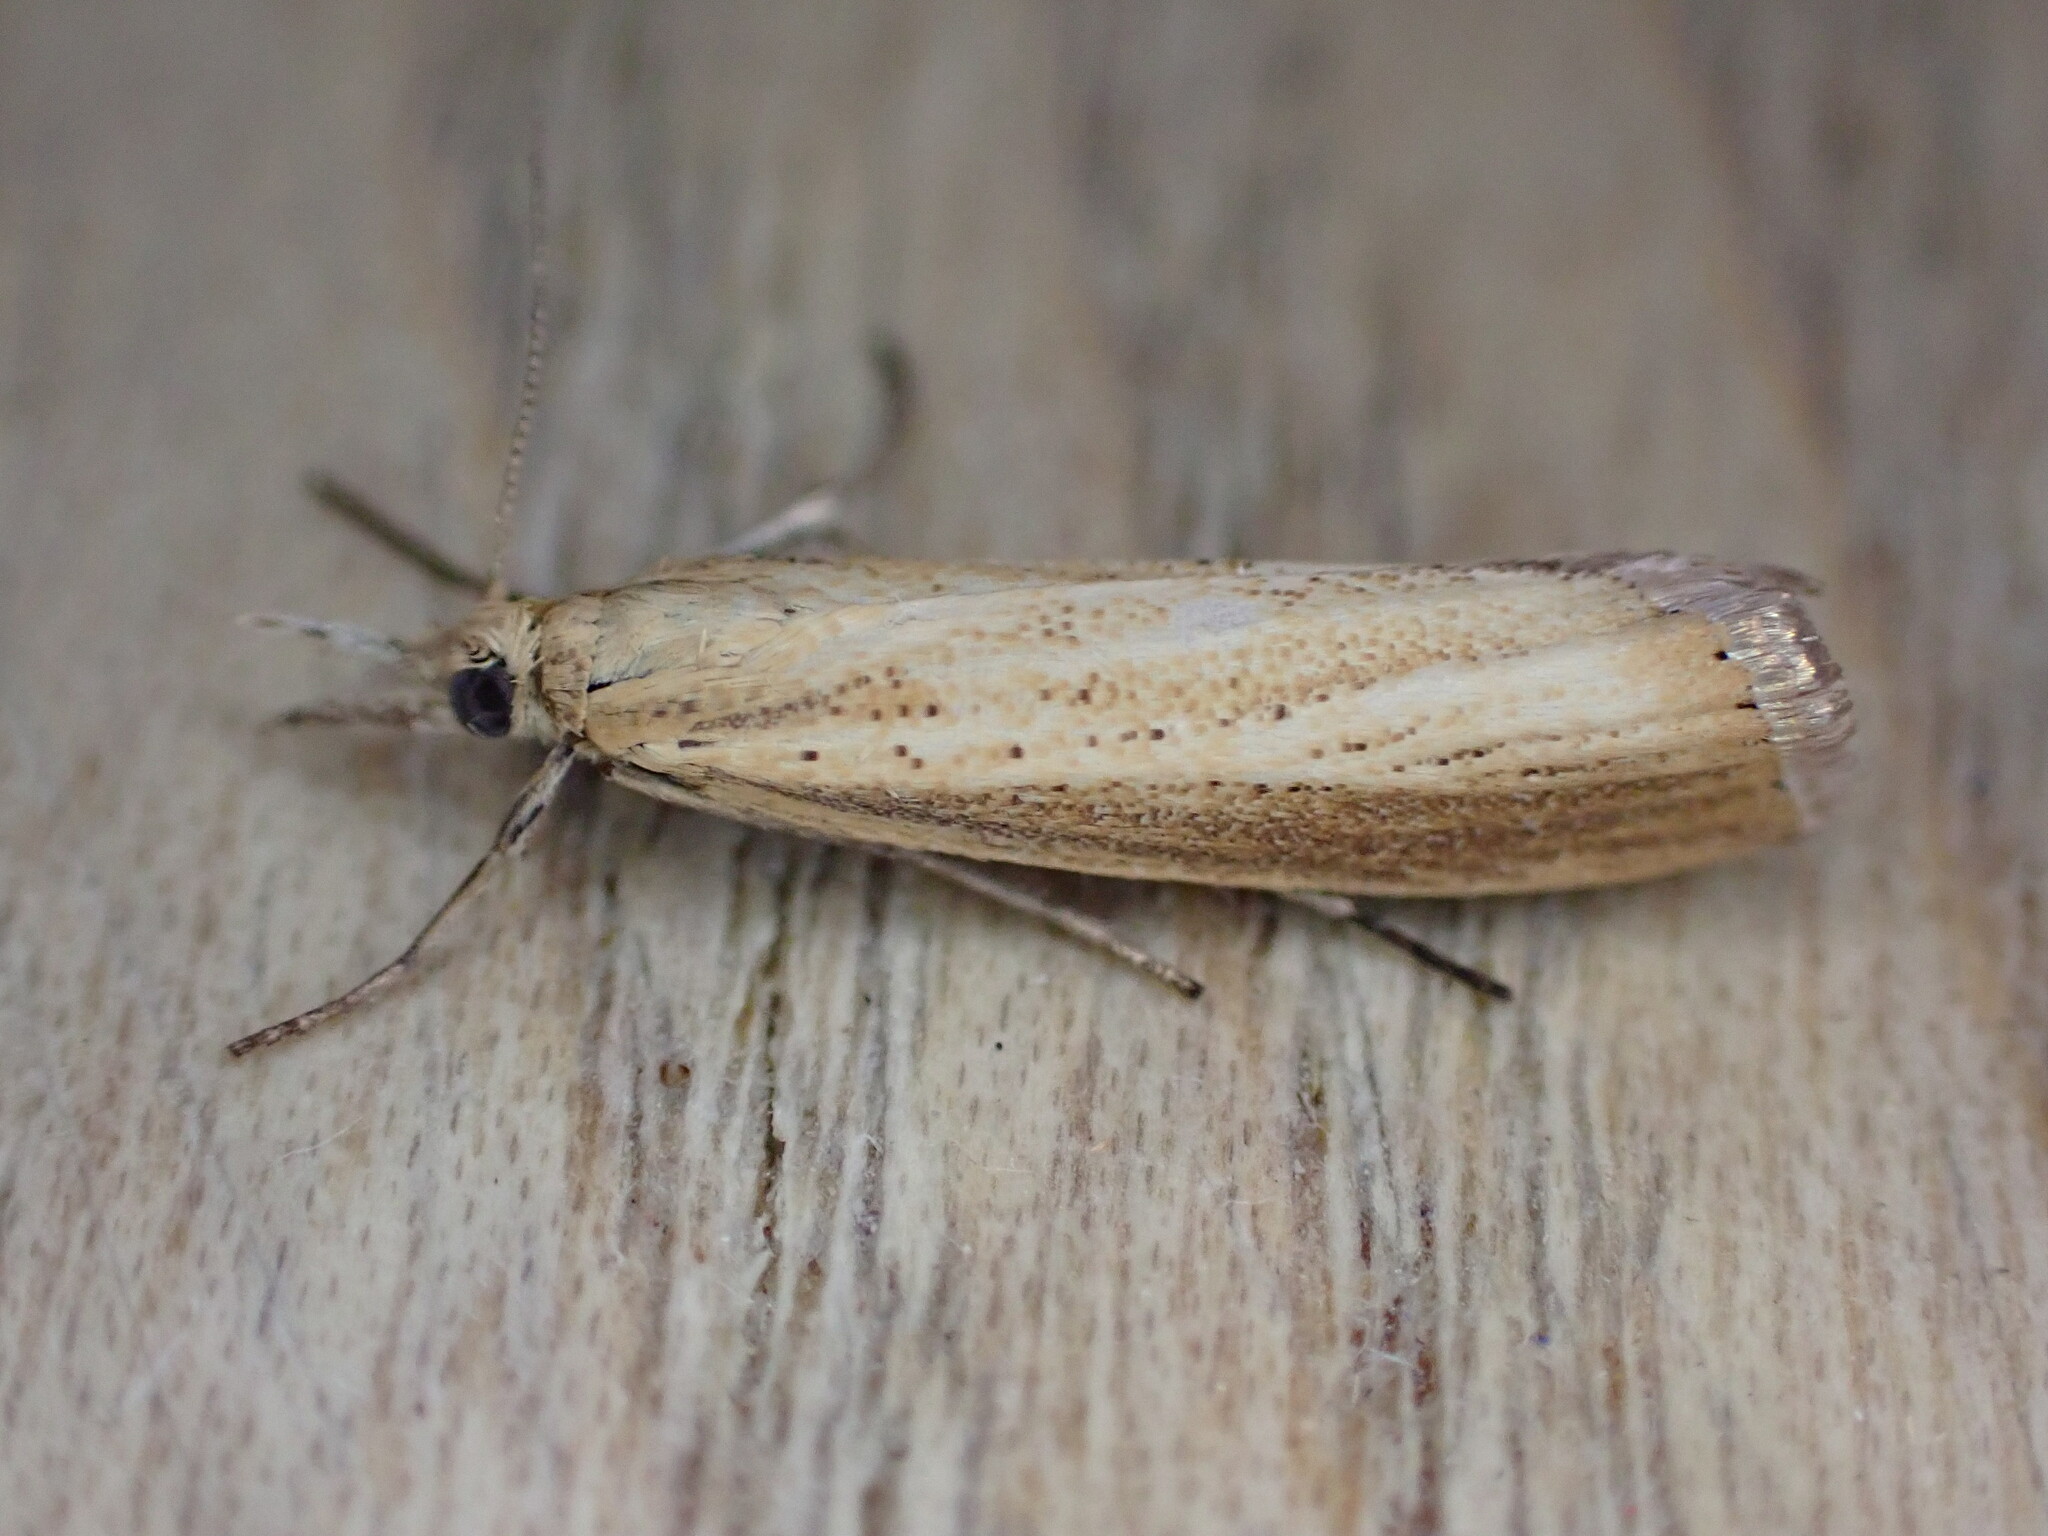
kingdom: Animalia
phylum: Arthropoda
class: Insecta
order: Lepidoptera
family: Crambidae
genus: Agriphila
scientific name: Agriphila straminella
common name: Straw grass-veneer
